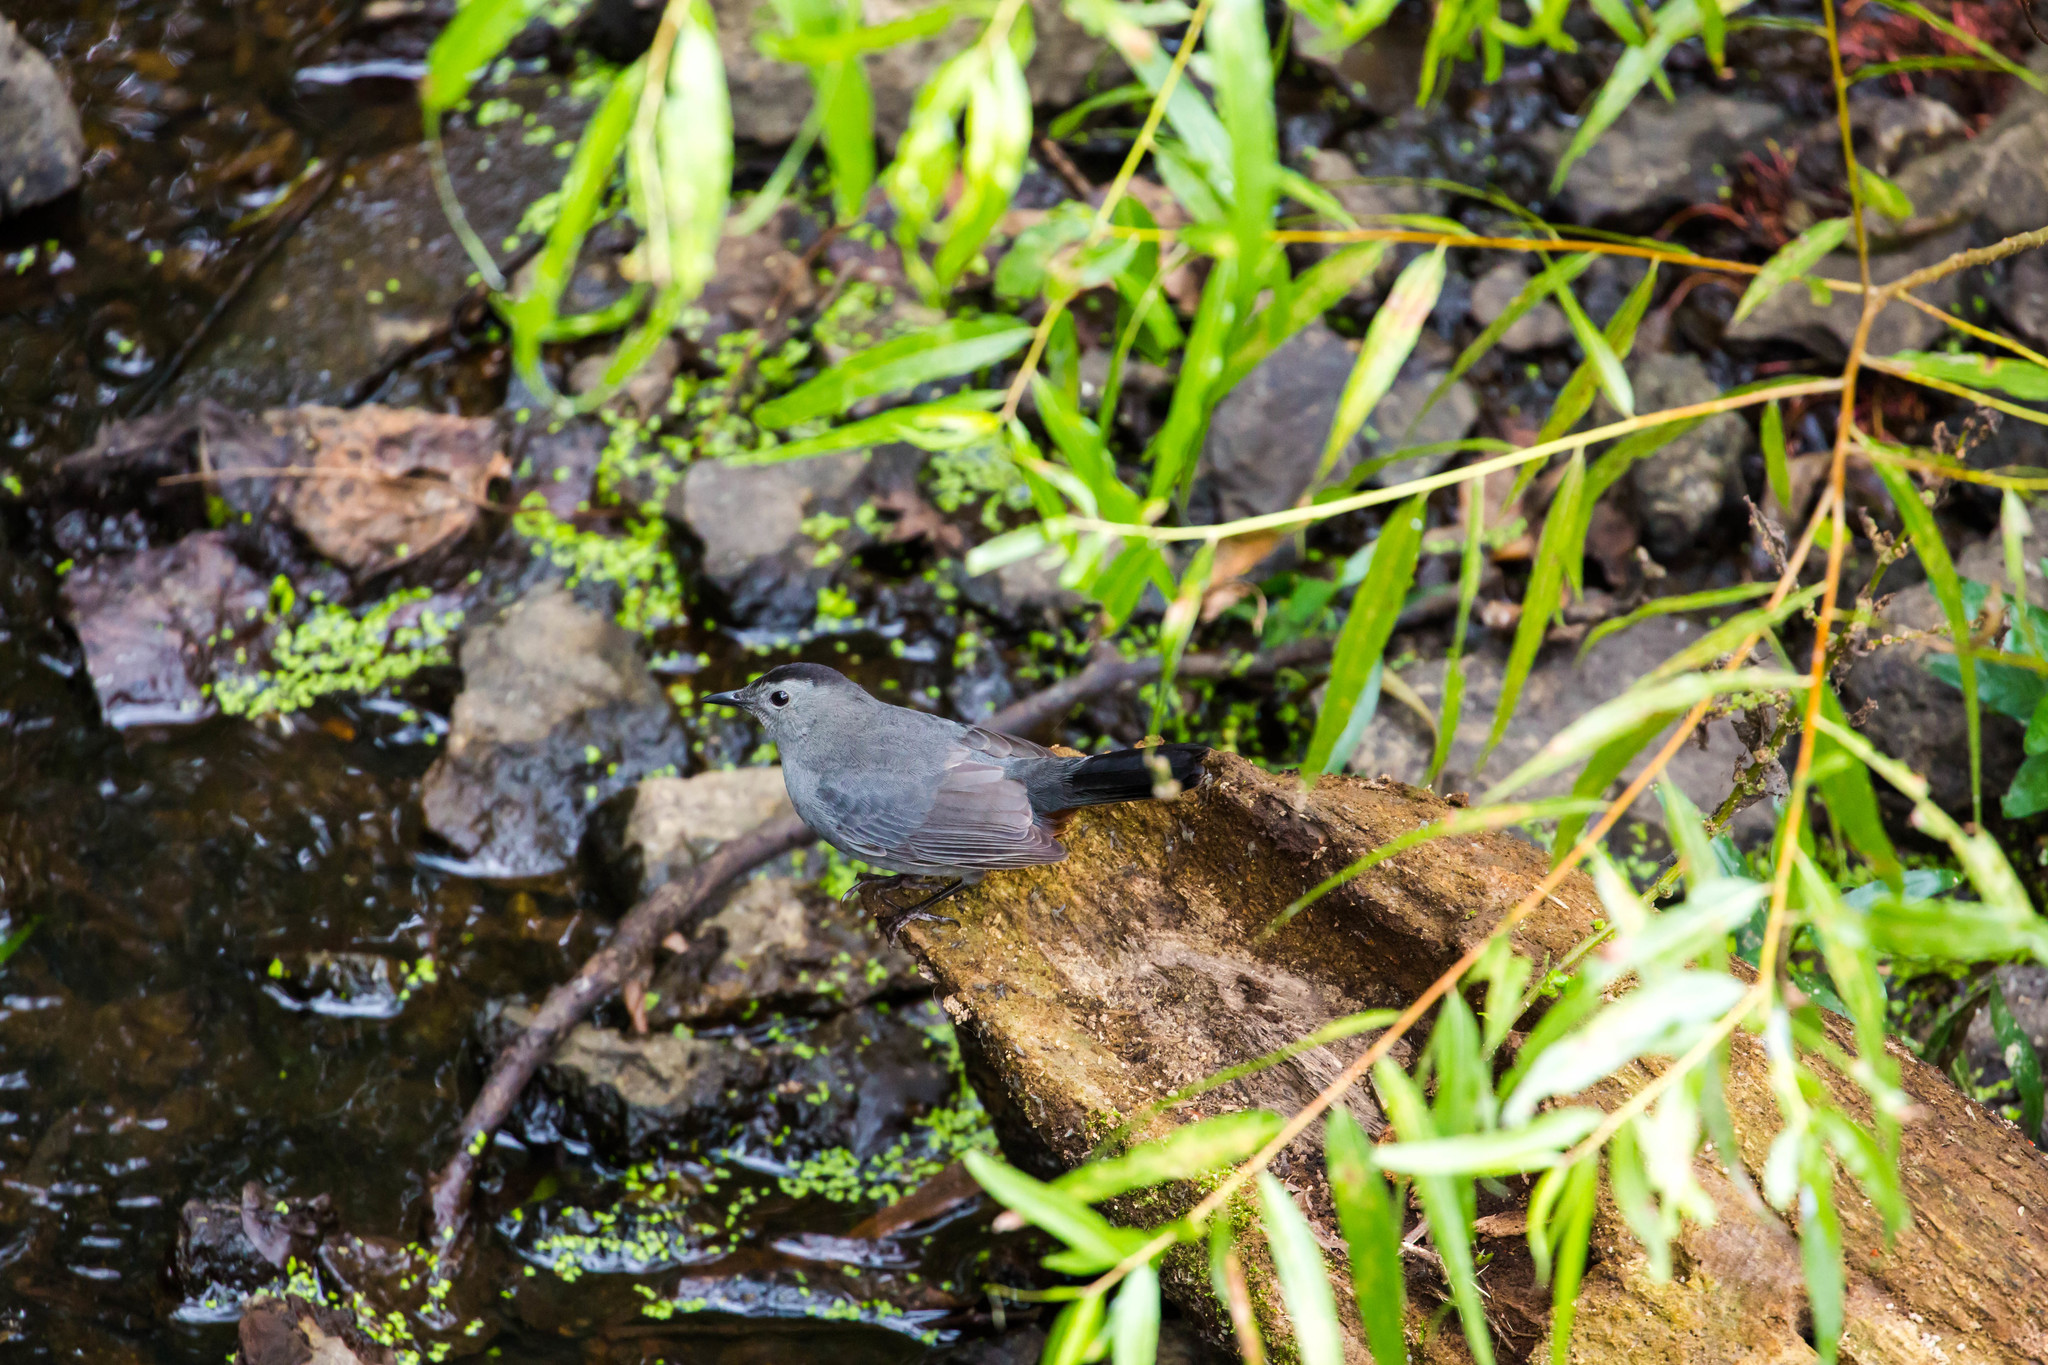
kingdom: Animalia
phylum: Chordata
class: Aves
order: Passeriformes
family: Mimidae
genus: Dumetella
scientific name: Dumetella carolinensis
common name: Gray catbird
